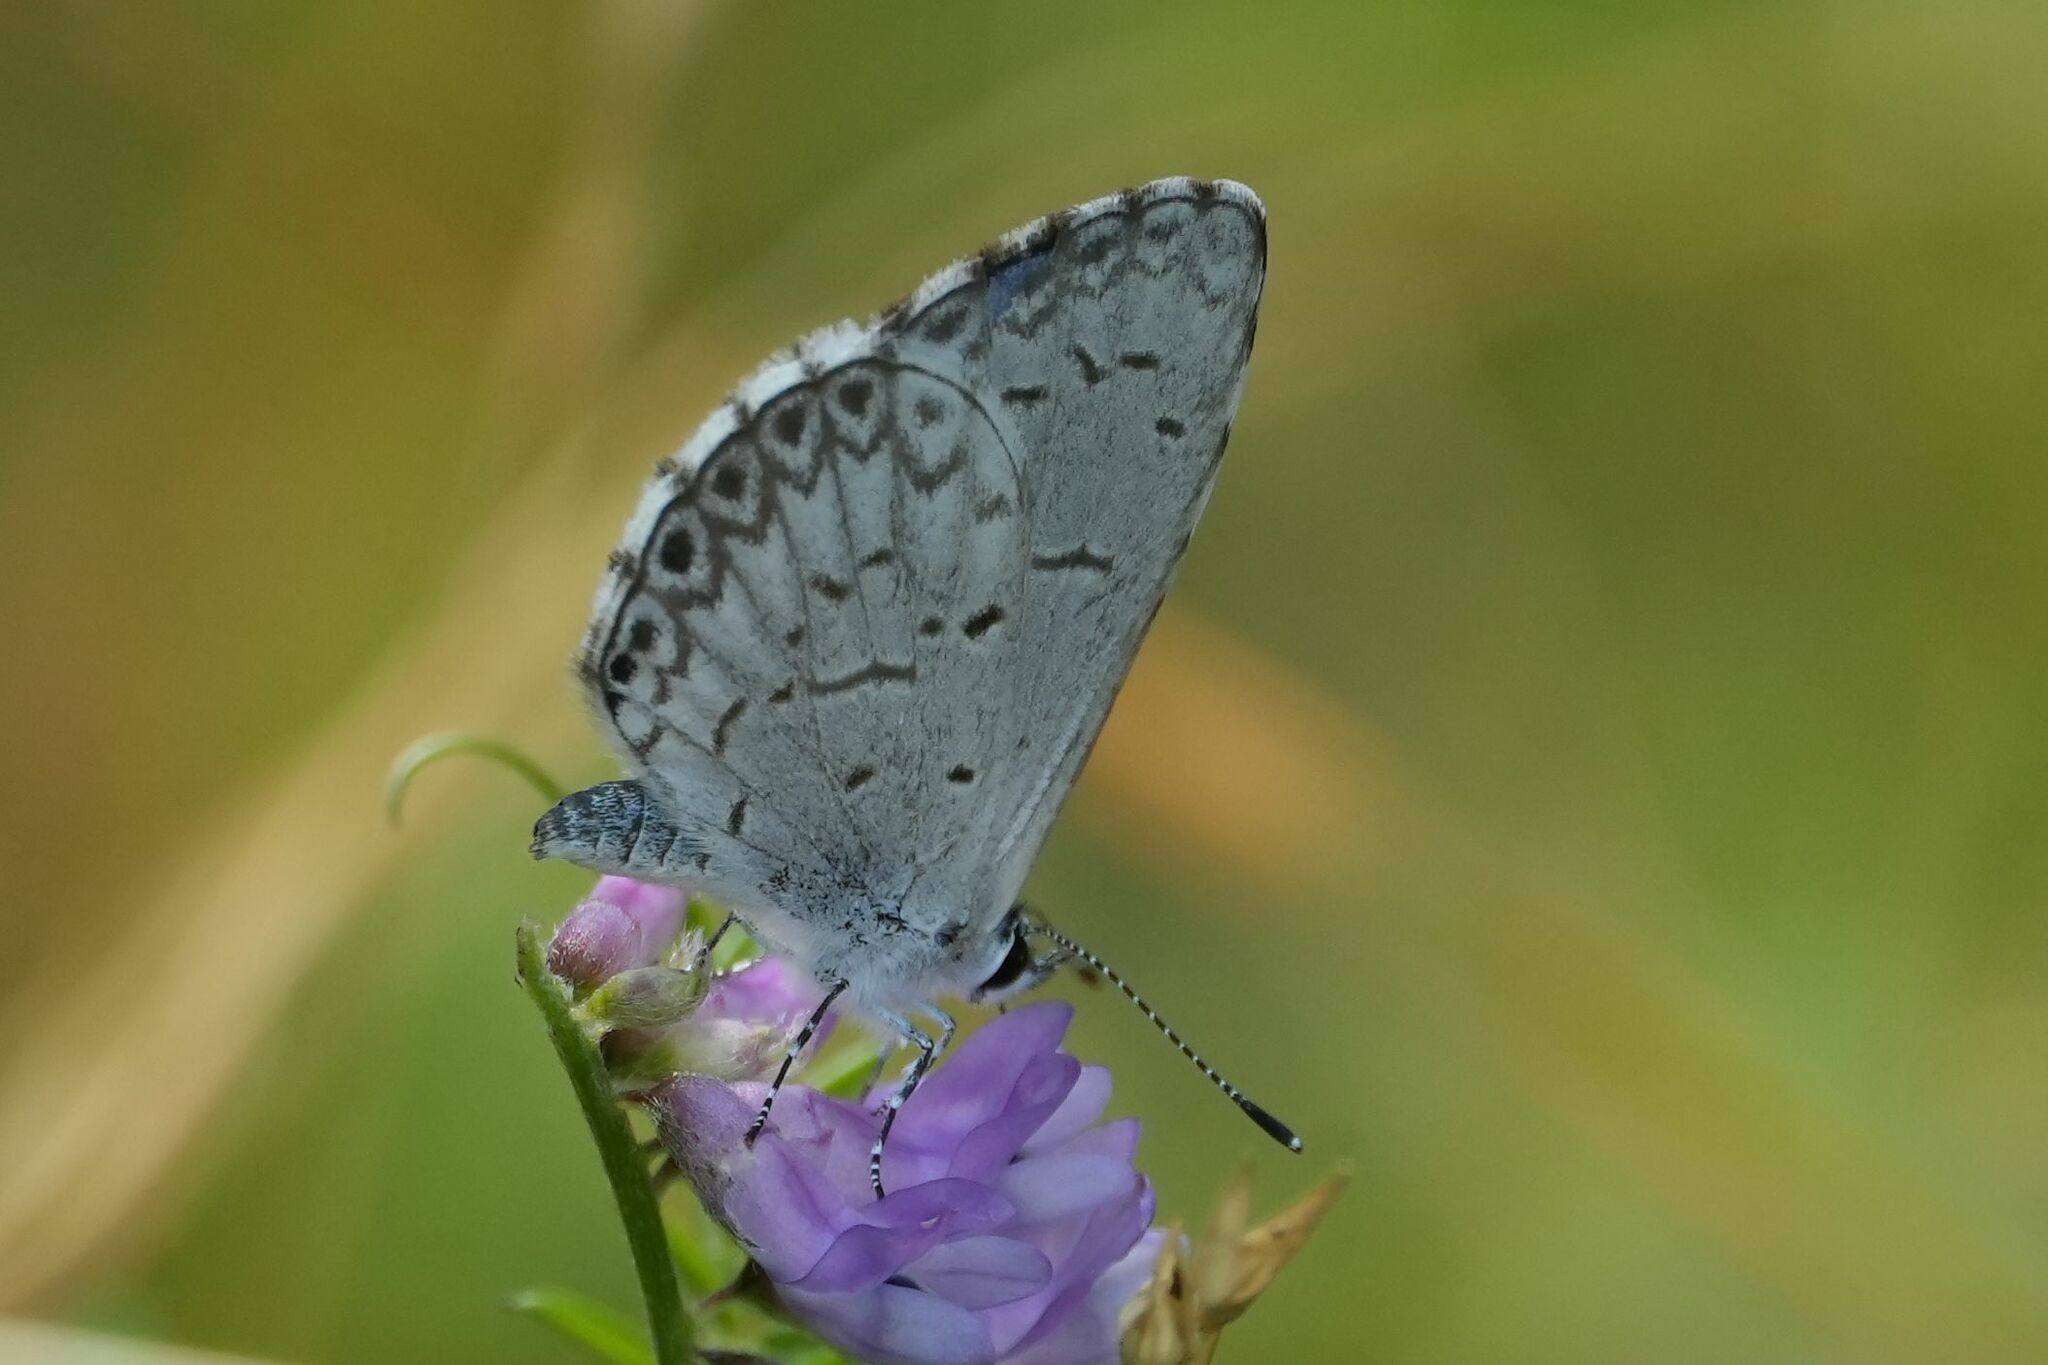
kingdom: Animalia
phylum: Arthropoda
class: Insecta
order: Lepidoptera
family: Lycaenidae
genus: Celastrina
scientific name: Celastrina lucia
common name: Lucia azure
